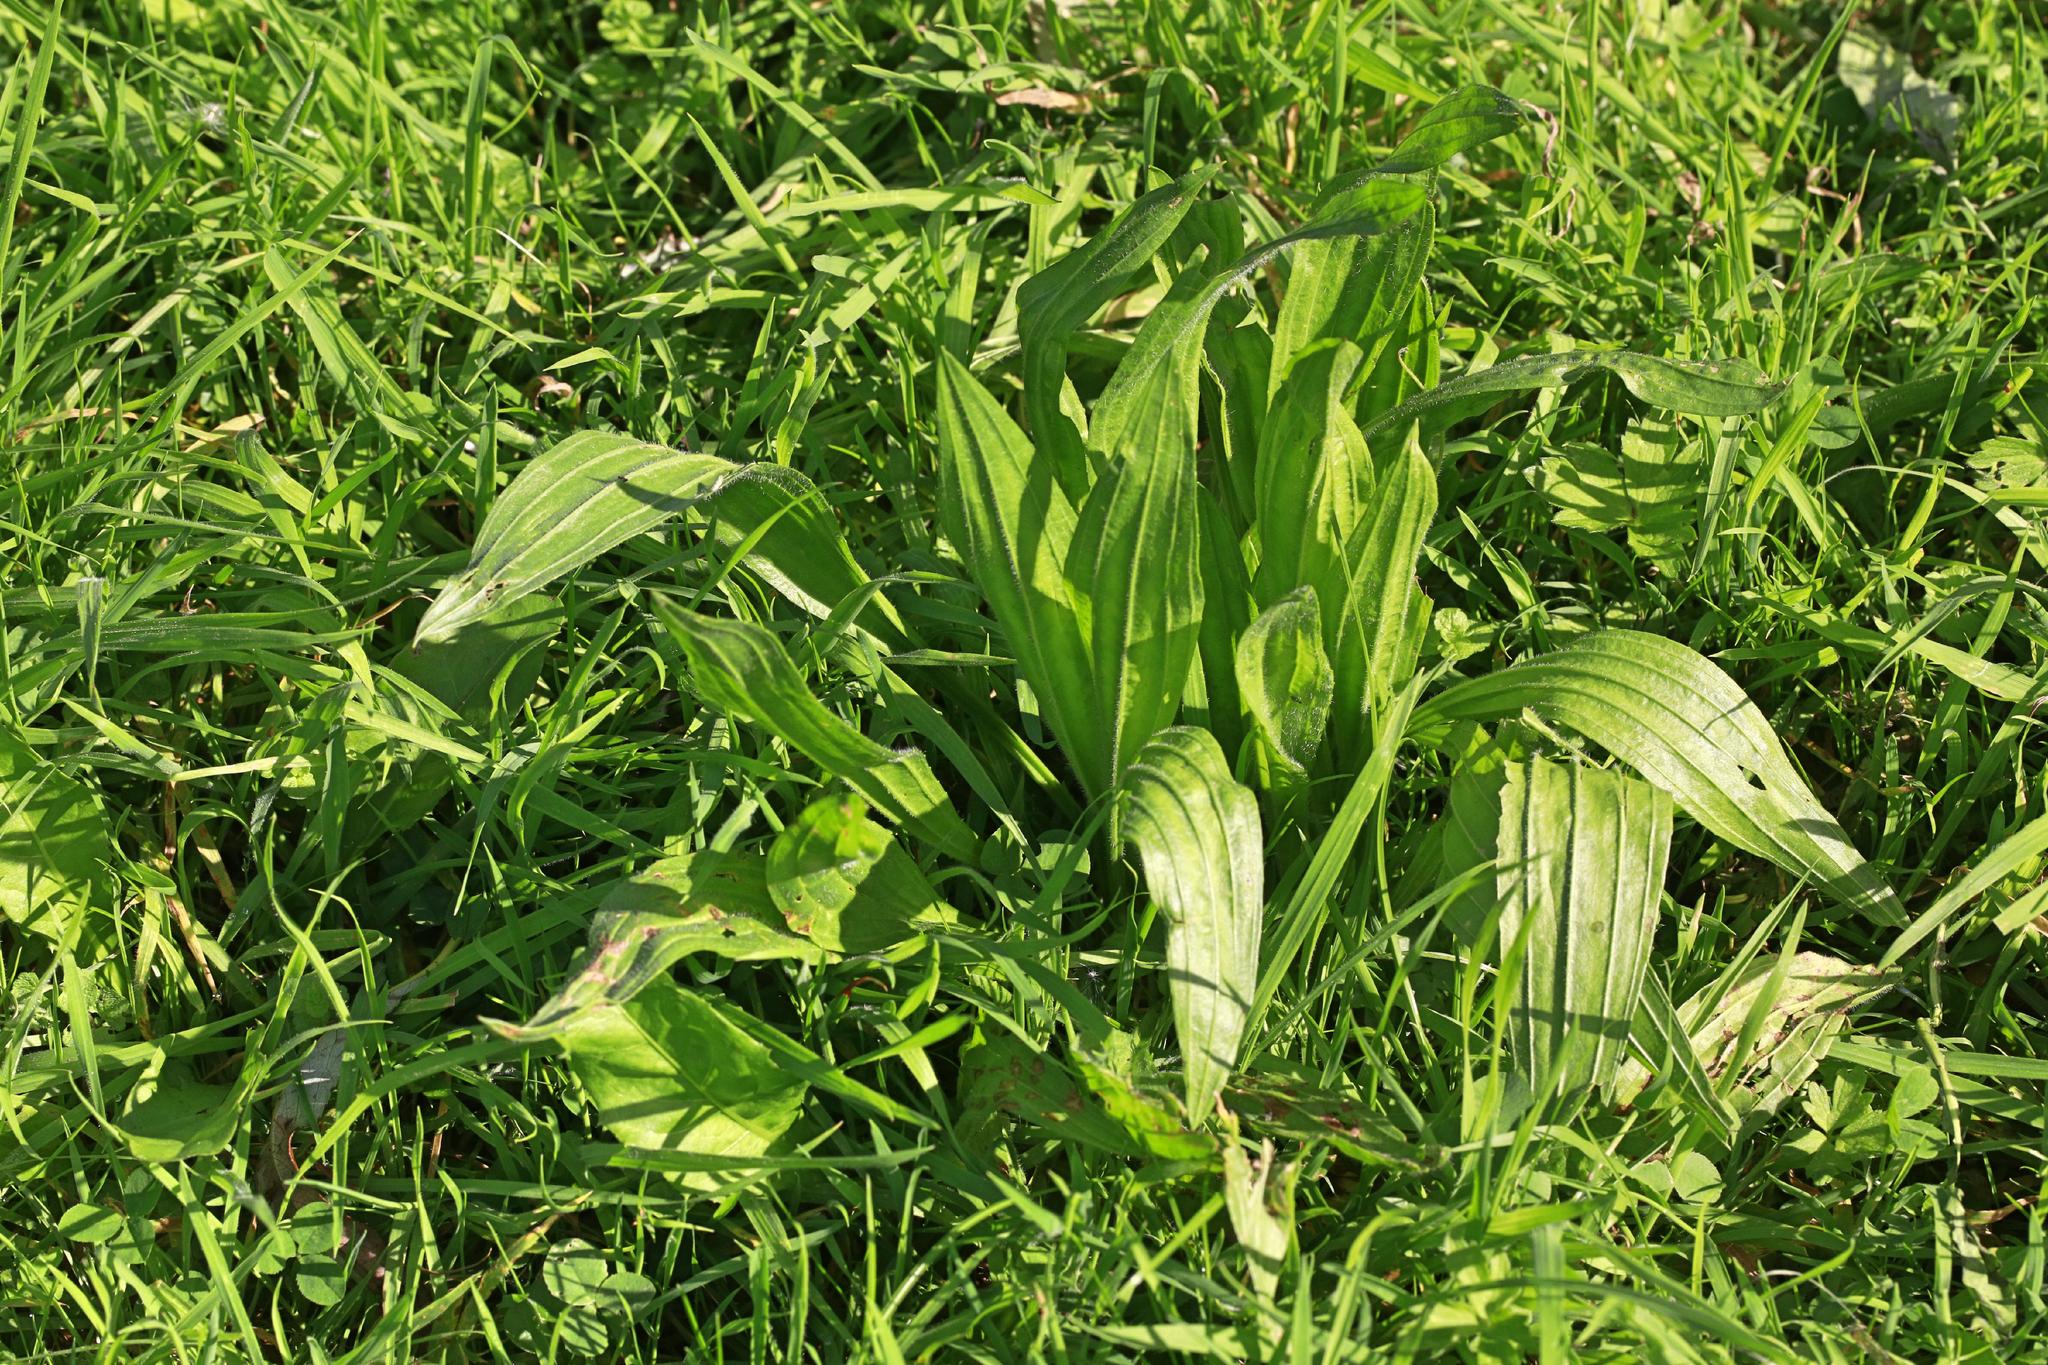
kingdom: Plantae
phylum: Tracheophyta
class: Magnoliopsida
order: Lamiales
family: Plantaginaceae
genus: Plantago
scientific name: Plantago lanceolata
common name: Ribwort plantain
